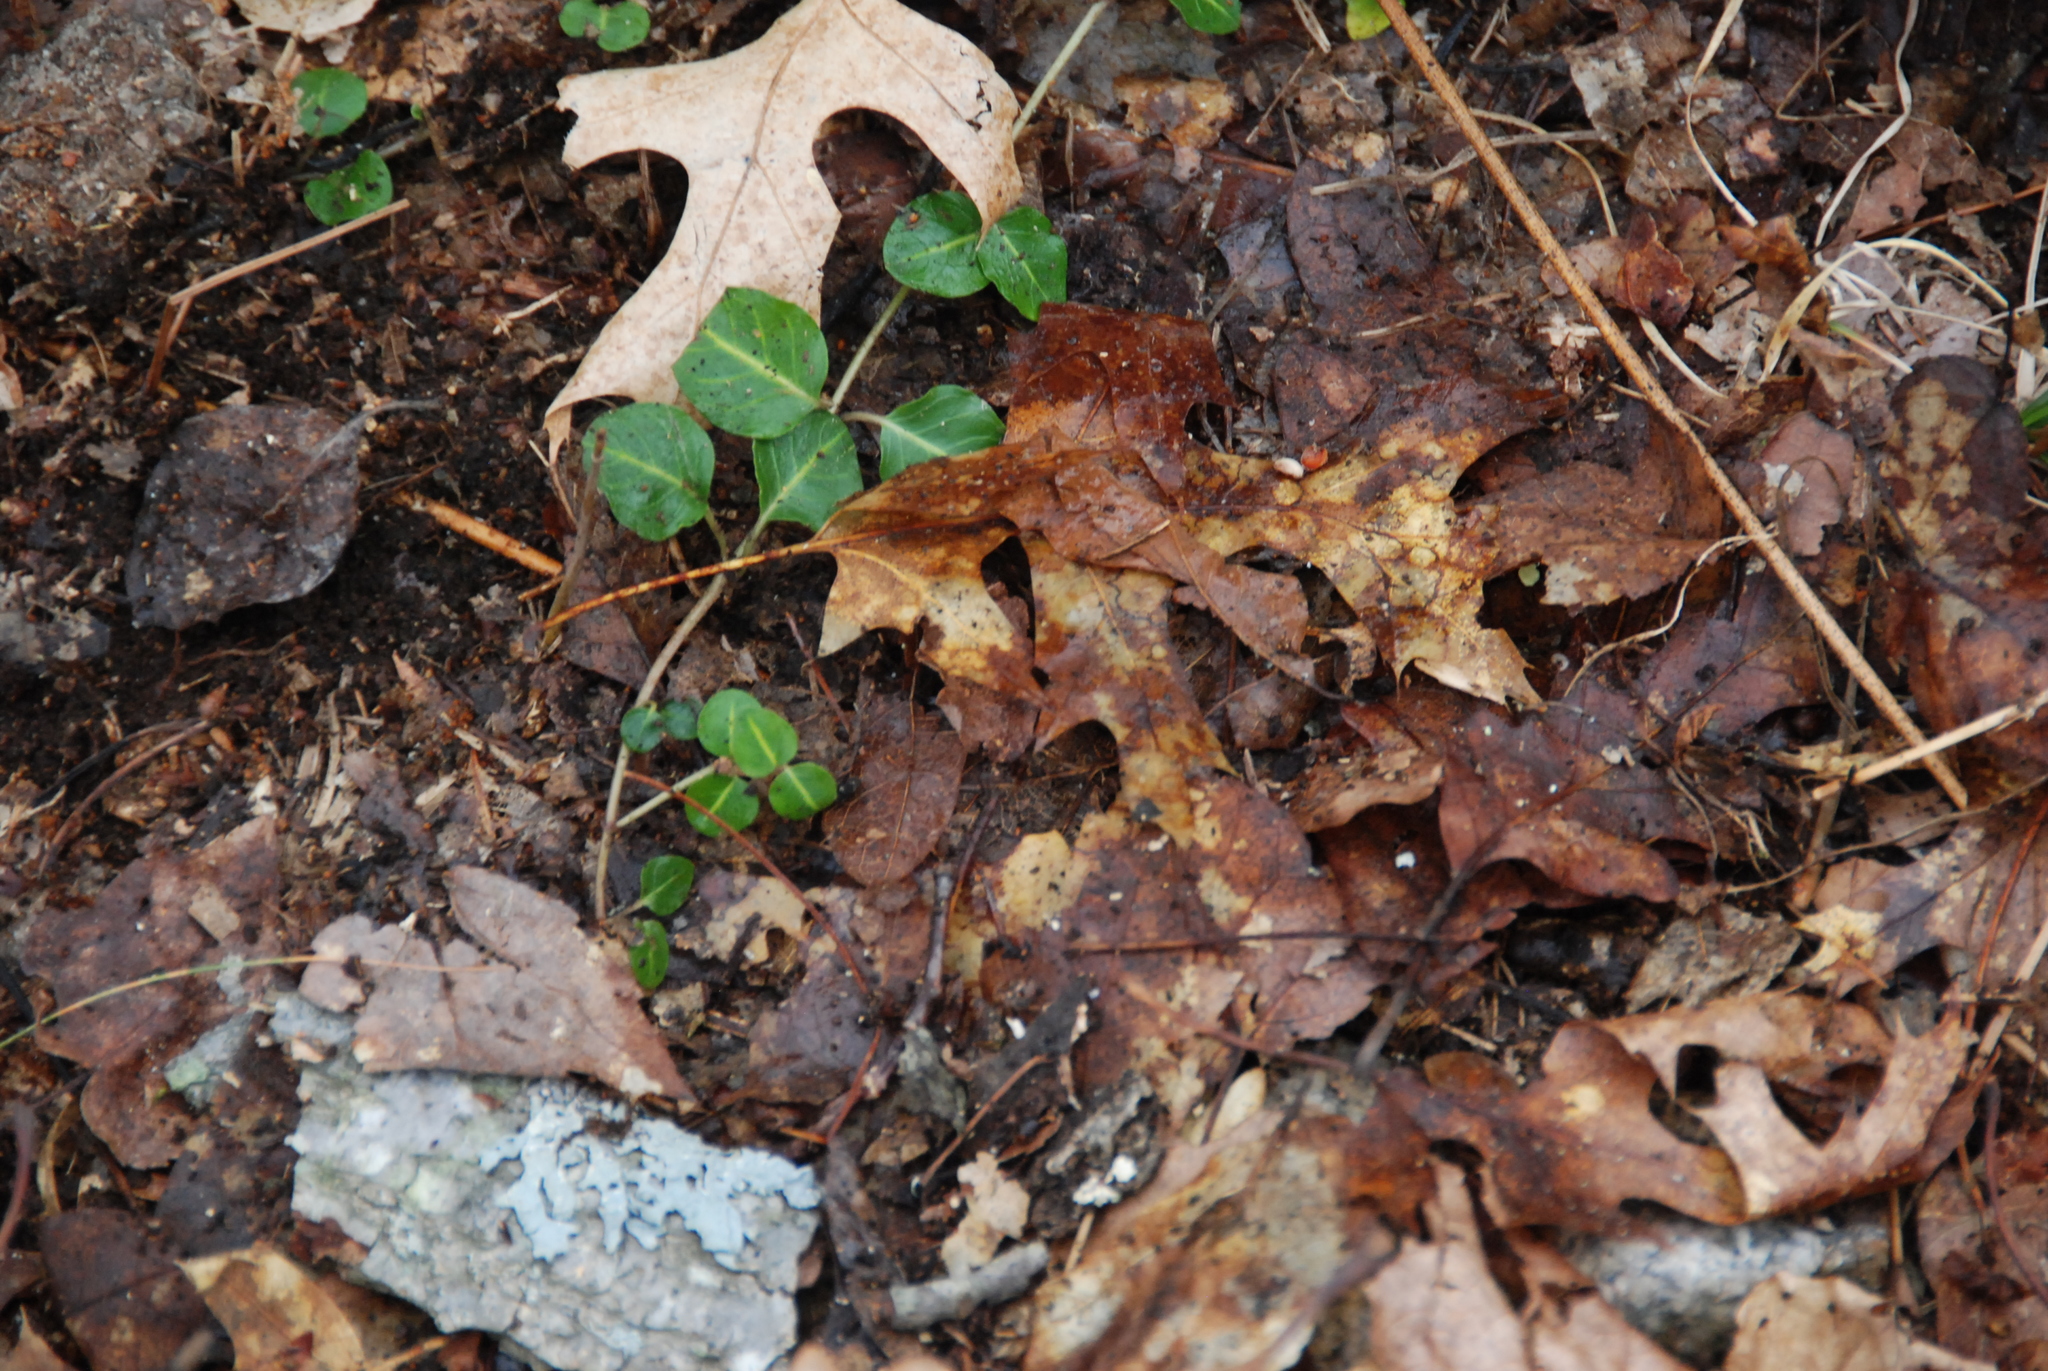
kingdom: Plantae
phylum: Tracheophyta
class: Magnoliopsida
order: Gentianales
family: Rubiaceae
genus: Mitchella
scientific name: Mitchella repens
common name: Partridge-berry
